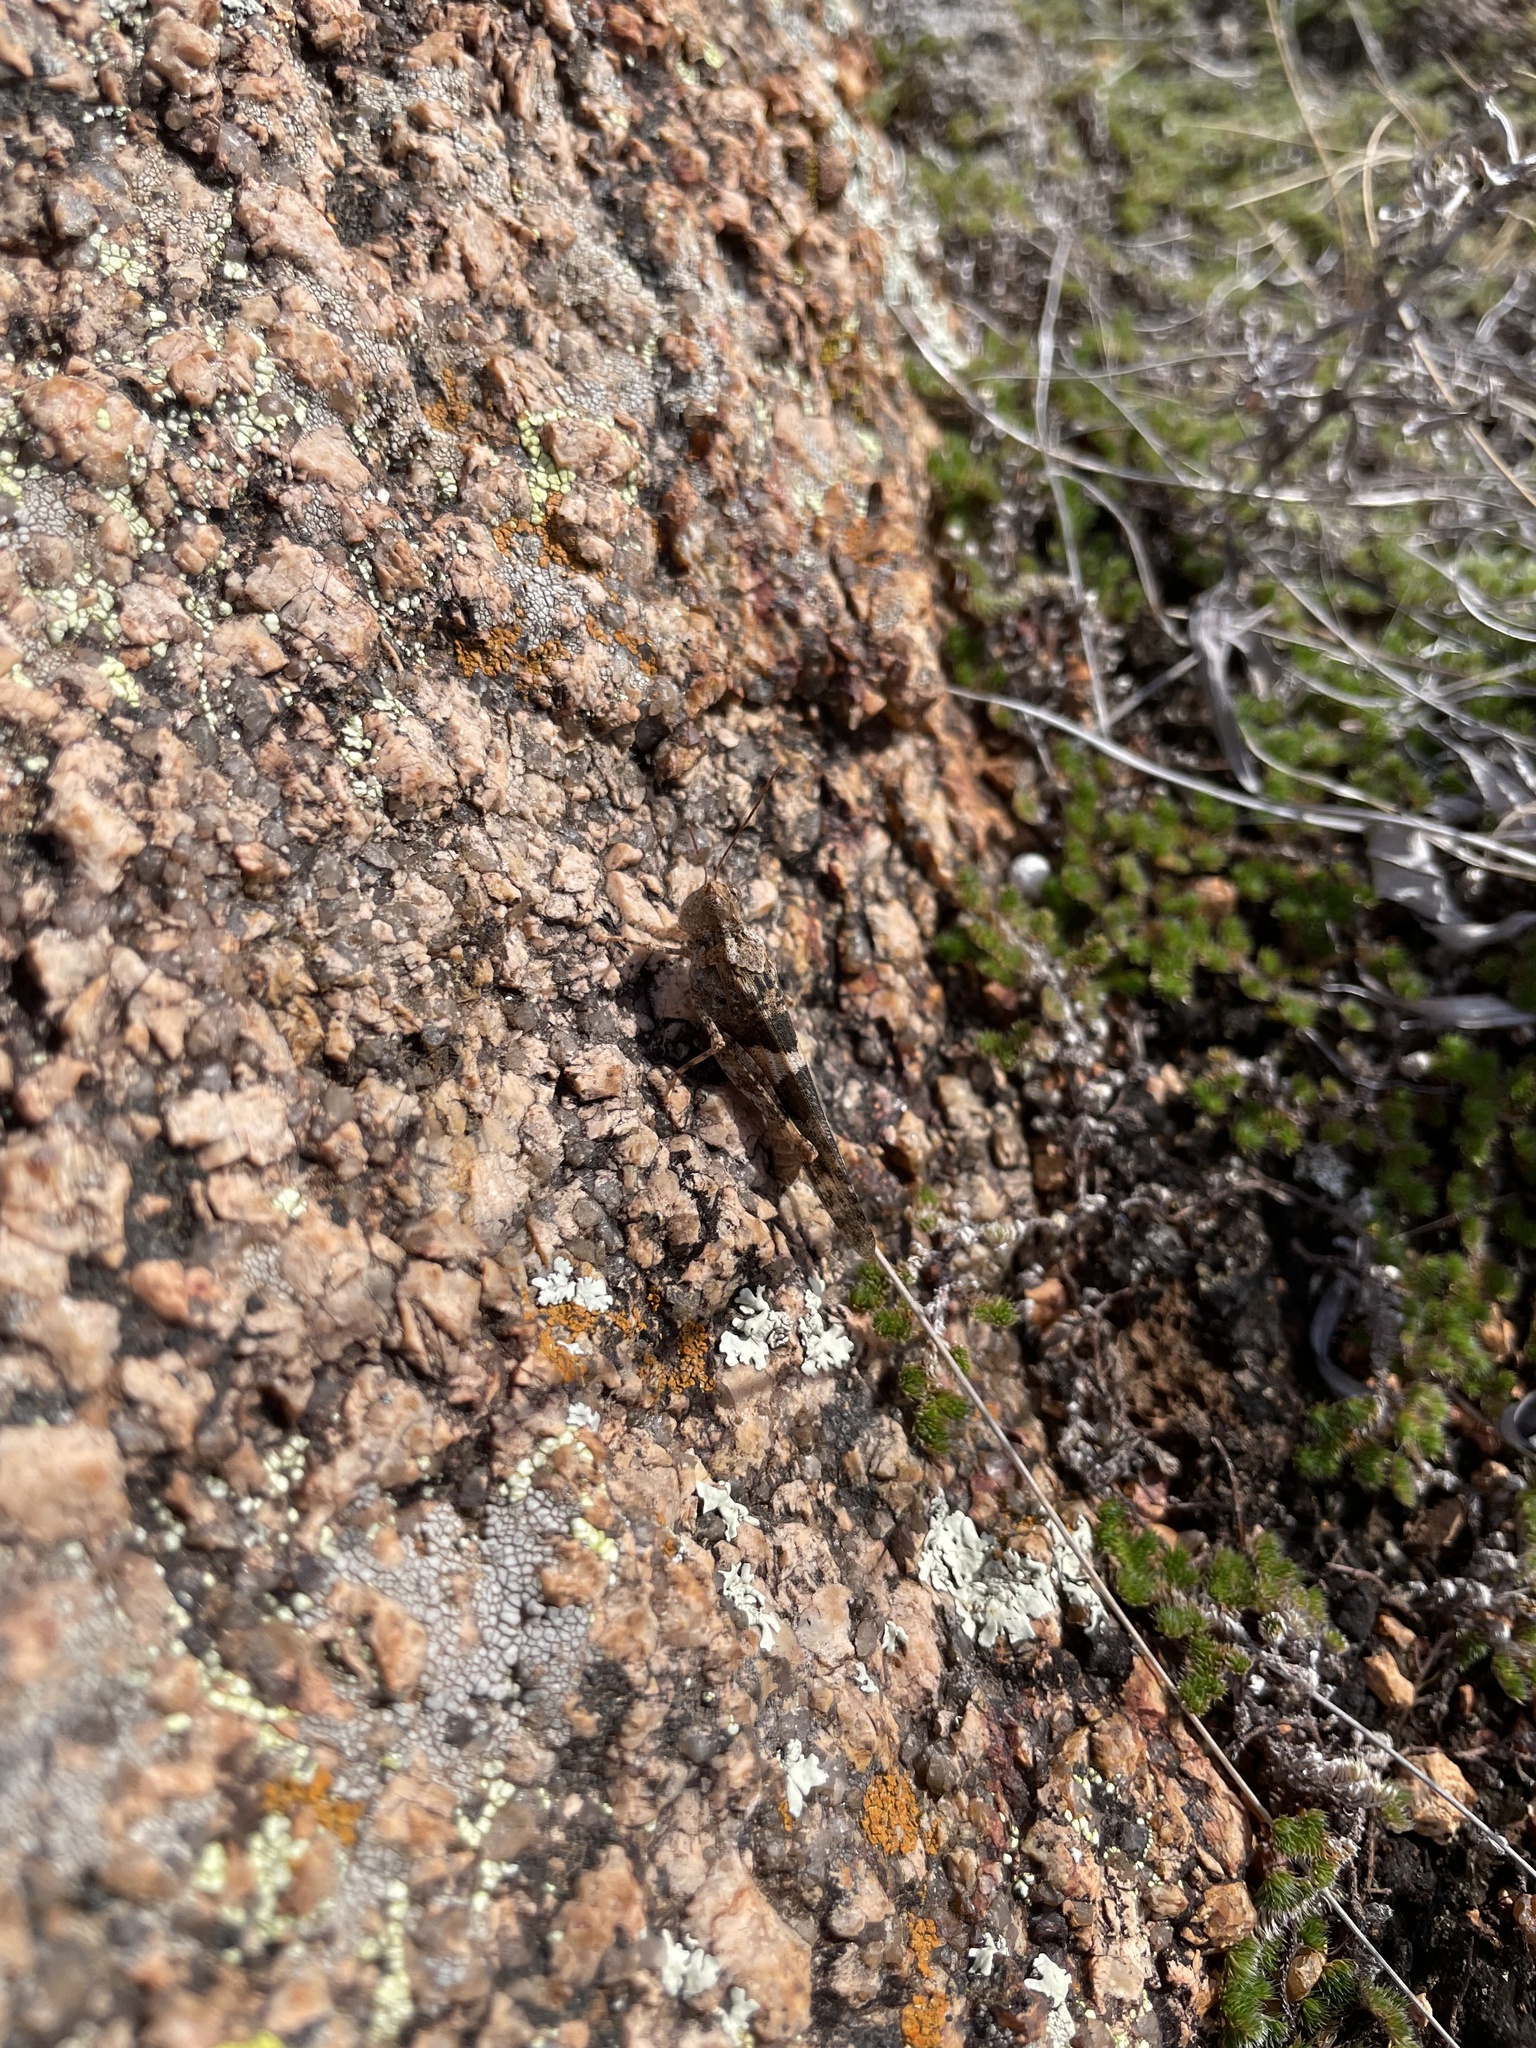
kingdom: Animalia
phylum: Arthropoda
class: Insecta
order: Orthoptera
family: Acrididae
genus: Trimerotropis
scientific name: Trimerotropis saxatilis
